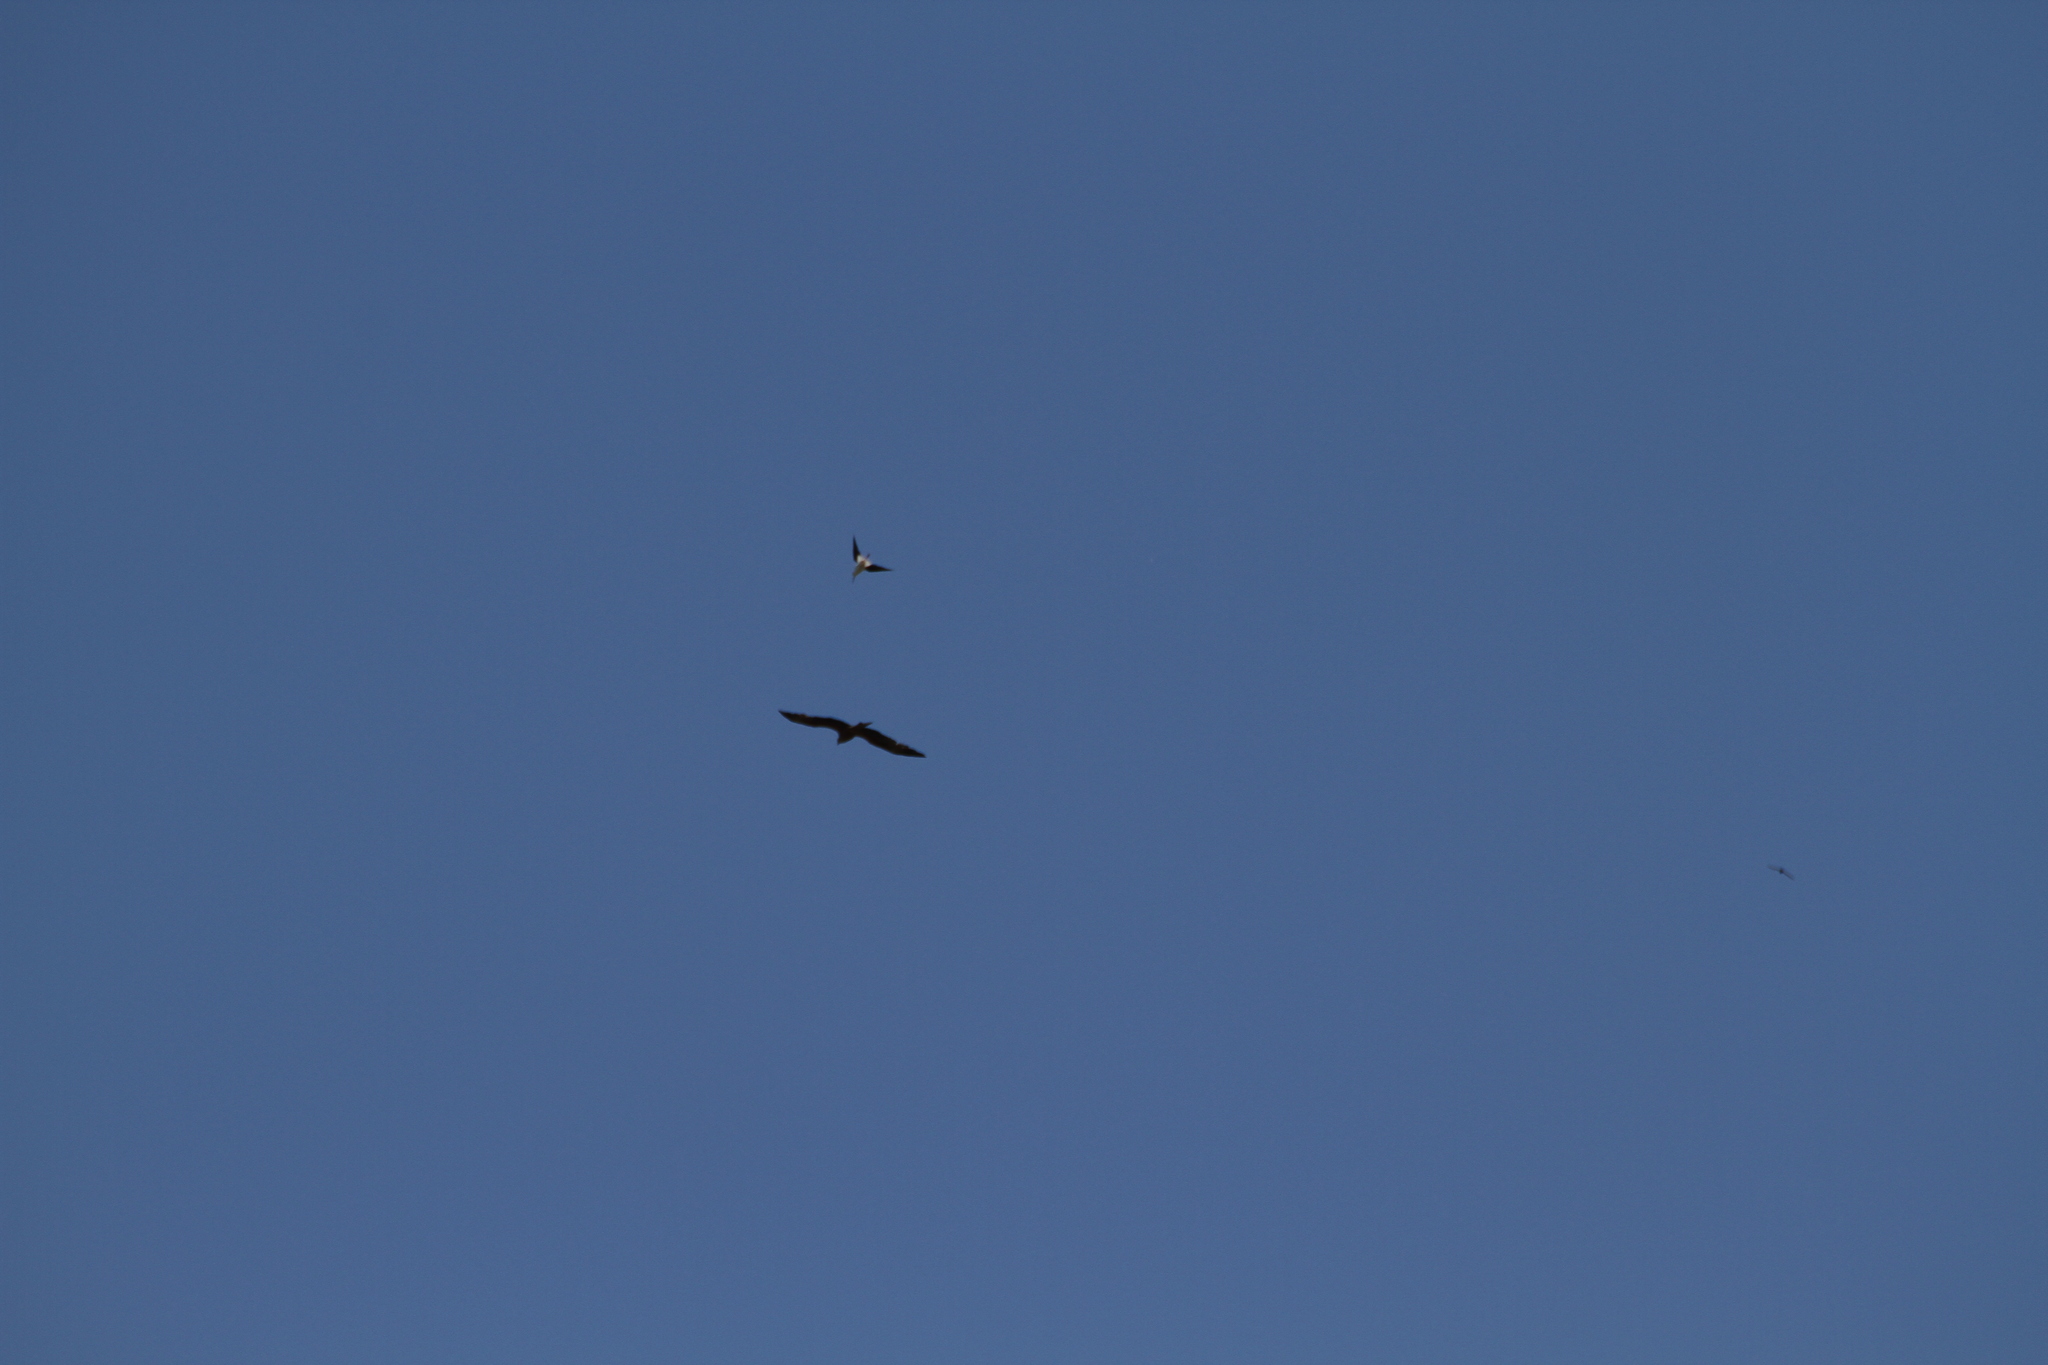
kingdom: Animalia
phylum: Chordata
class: Aves
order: Accipitriformes
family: Accipitridae
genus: Milvus
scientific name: Milvus migrans
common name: Black kite
